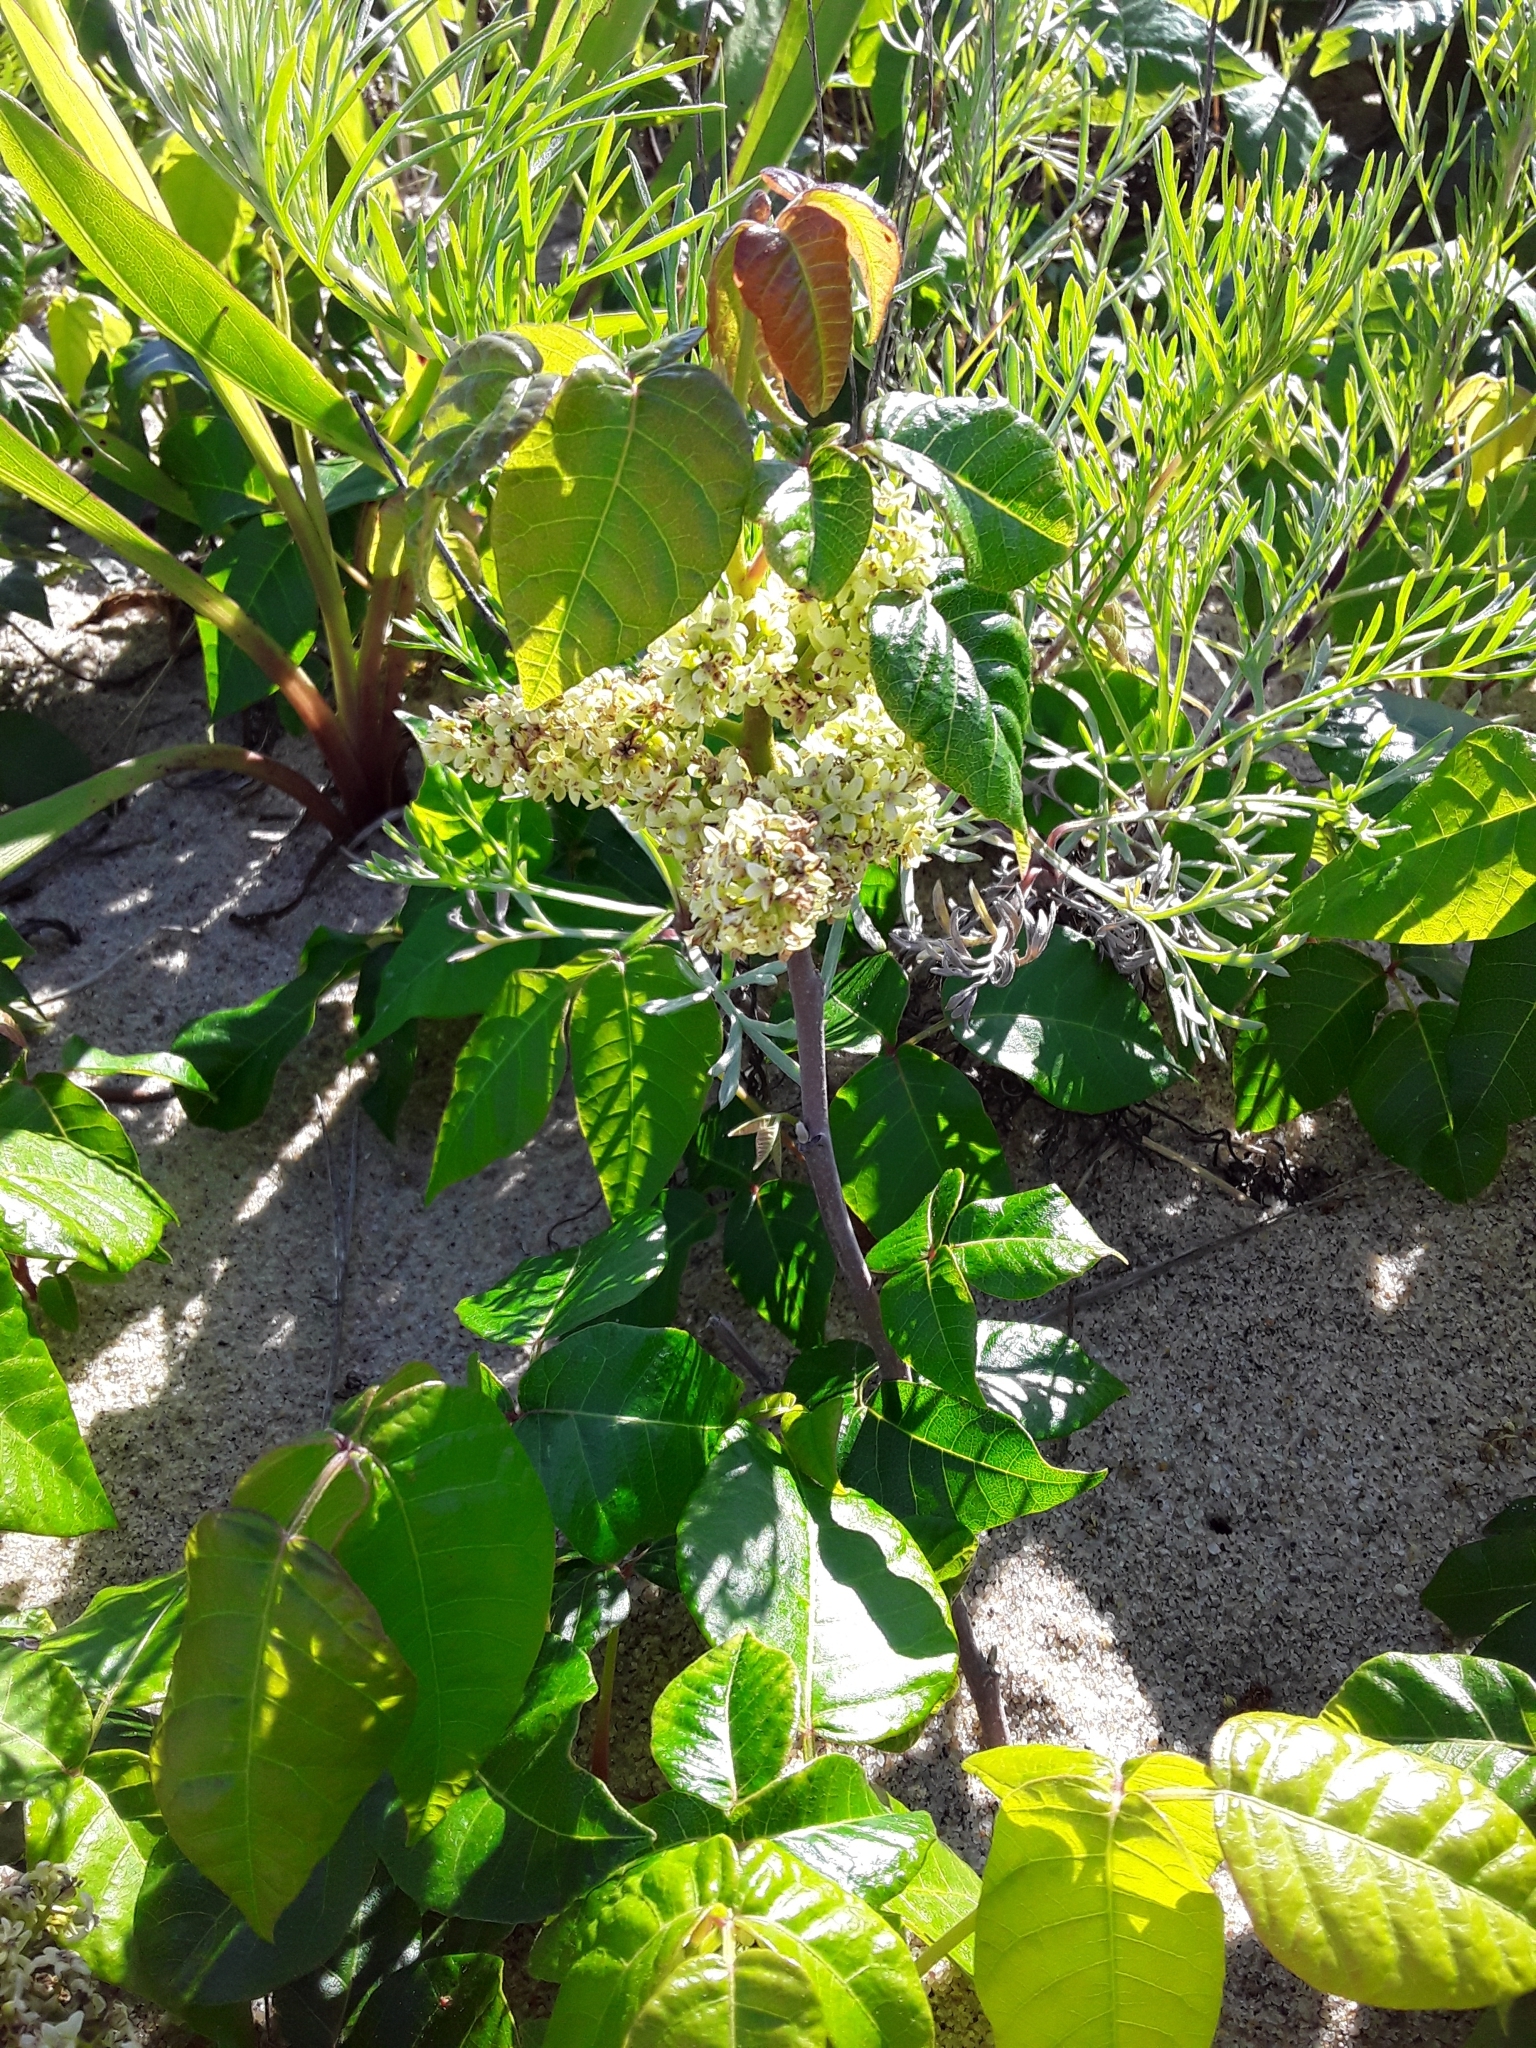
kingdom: Plantae
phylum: Tracheophyta
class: Magnoliopsida
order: Sapindales
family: Anacardiaceae
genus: Toxicodendron
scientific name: Toxicodendron radicans
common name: Poison ivy
